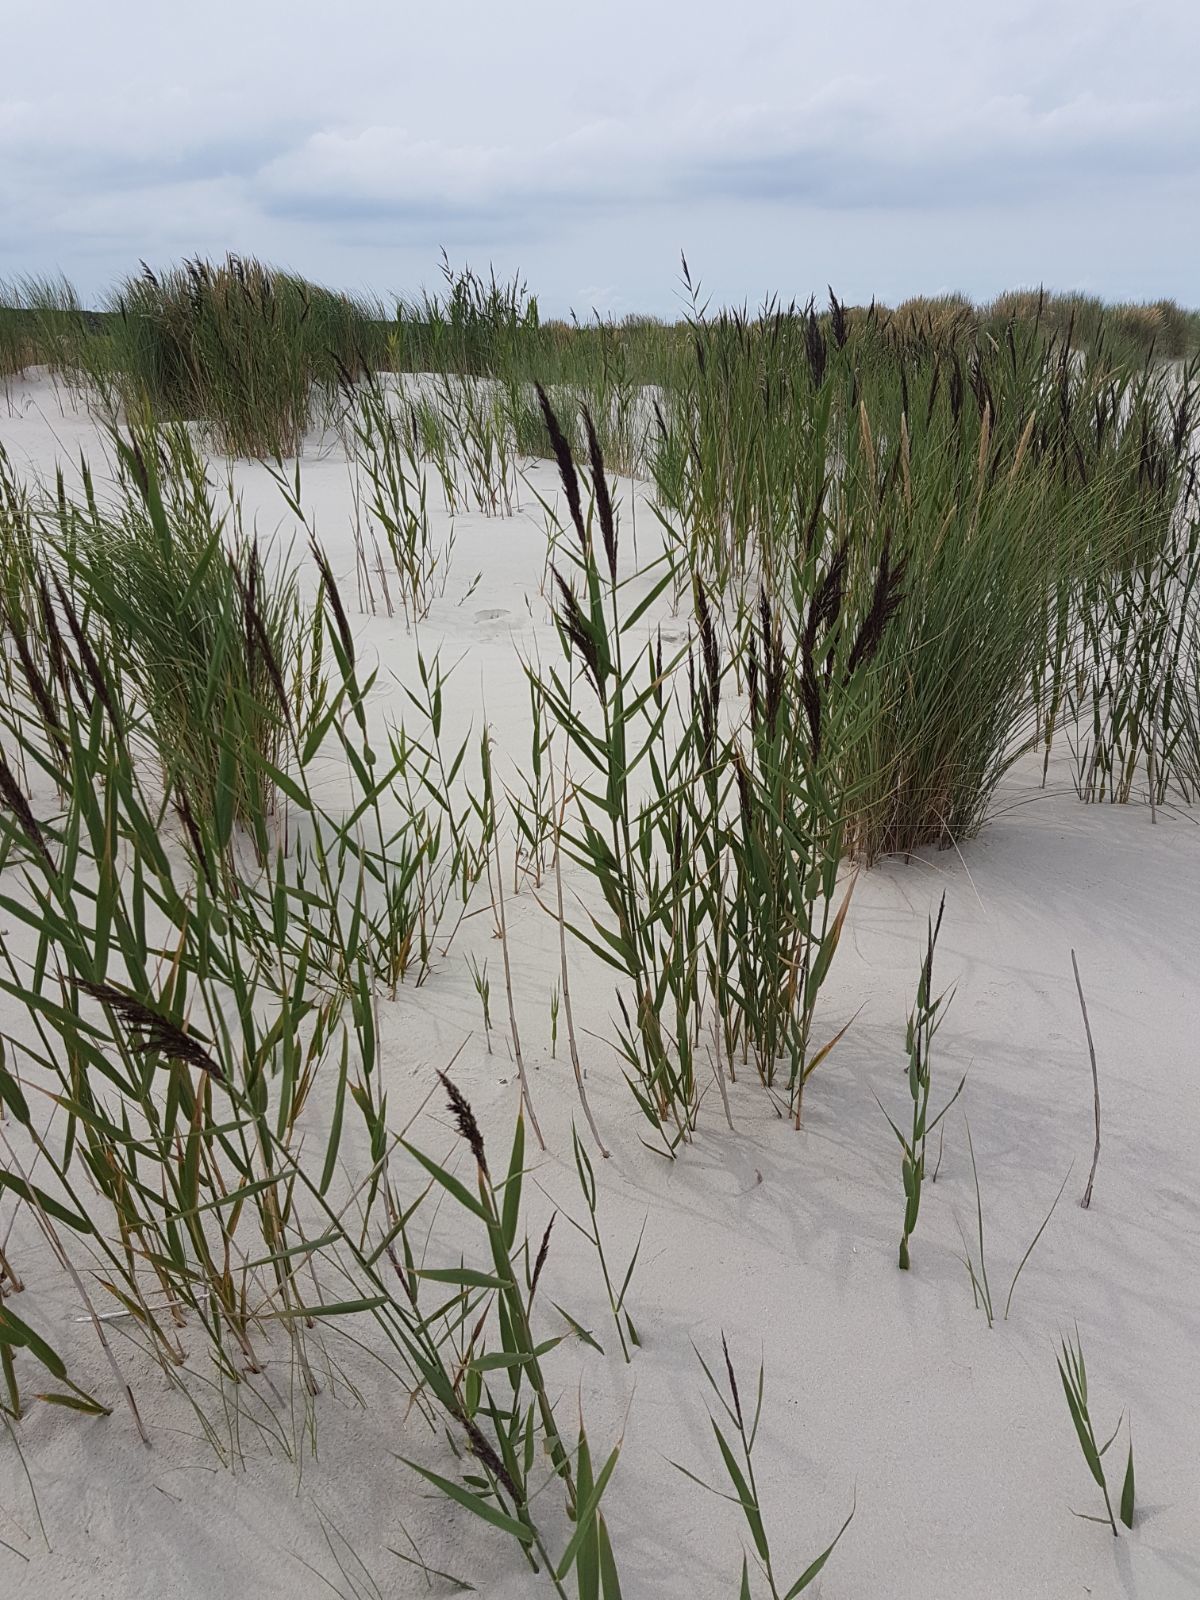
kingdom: Plantae
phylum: Tracheophyta
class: Liliopsida
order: Poales
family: Poaceae
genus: Phragmites
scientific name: Phragmites australis
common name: Common reed
